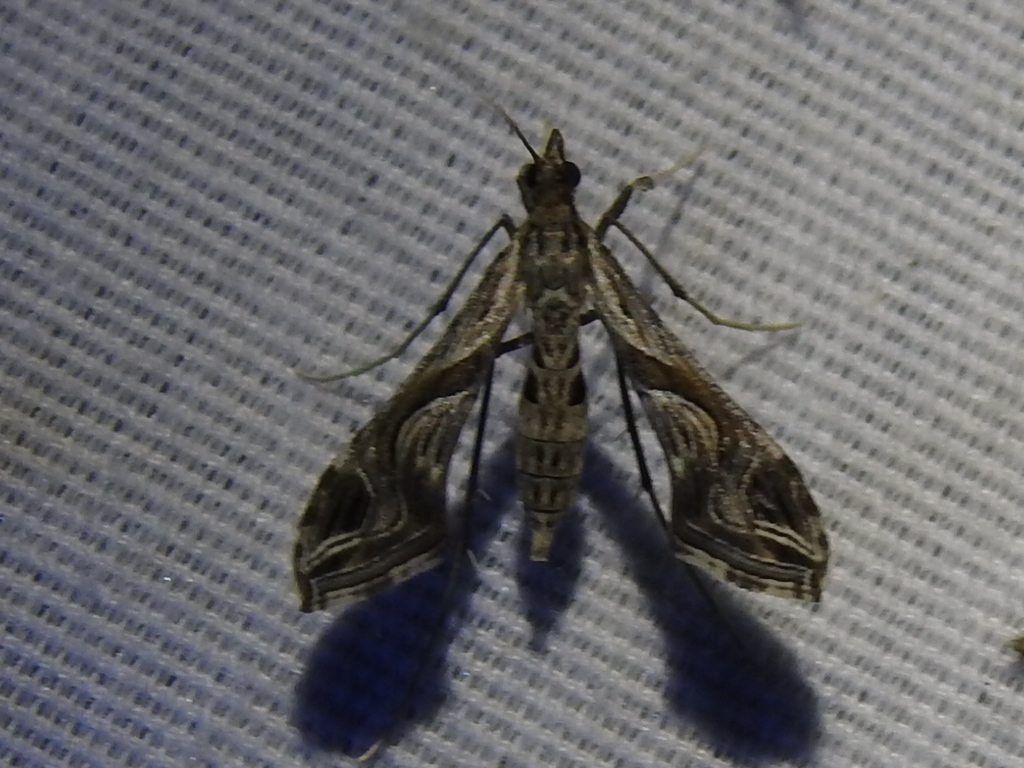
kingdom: Animalia
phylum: Arthropoda
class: Insecta
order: Lepidoptera
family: Crambidae
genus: Lineodes
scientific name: Lineodes integra
